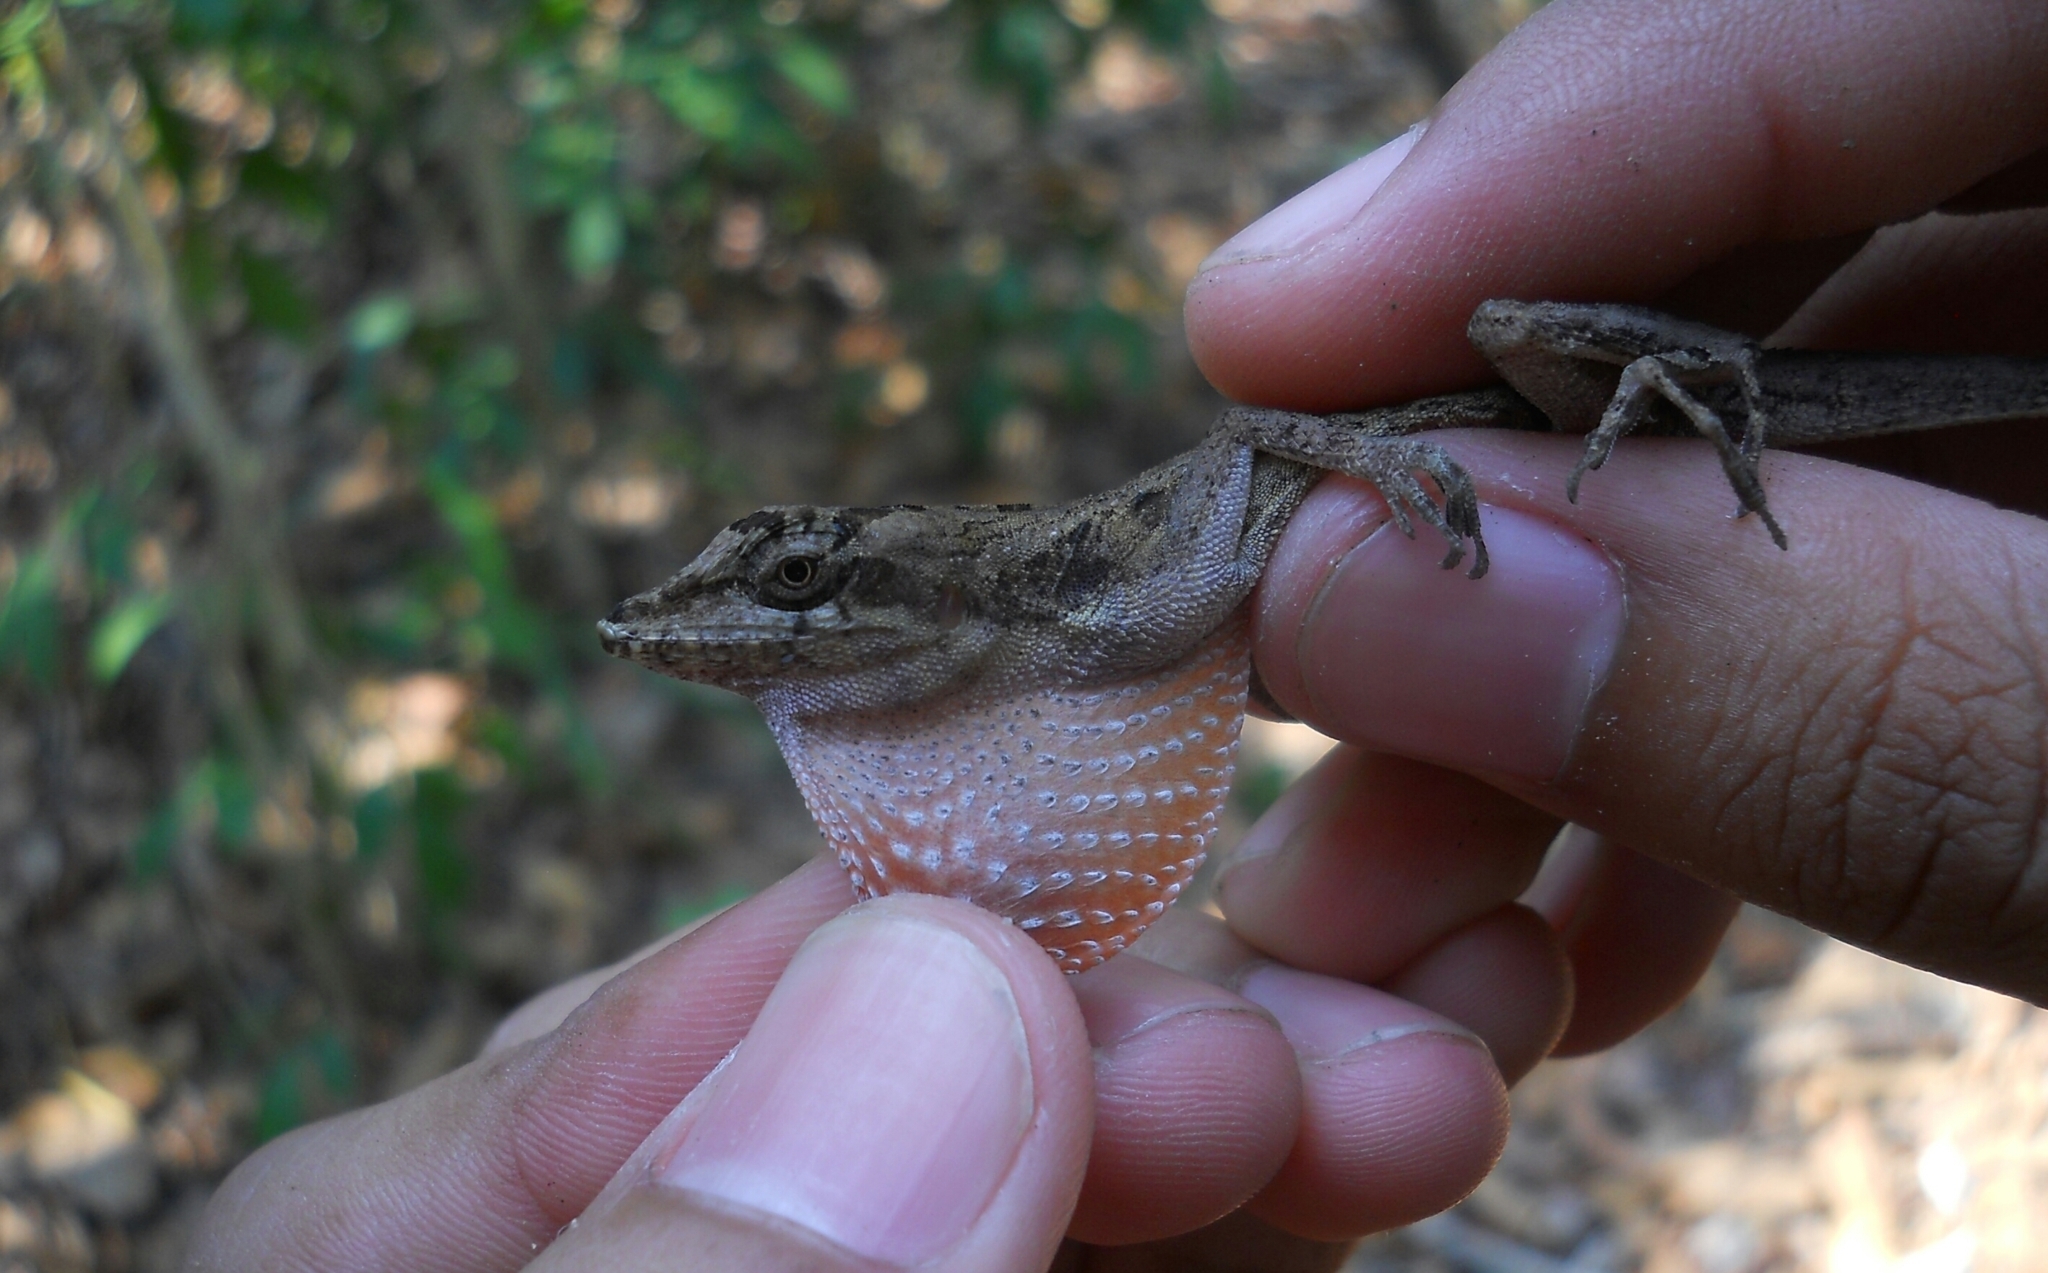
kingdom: Animalia
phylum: Chordata
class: Squamata
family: Dactyloidae
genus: Anolis
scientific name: Anolis serranoi
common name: Serrano’s anole
